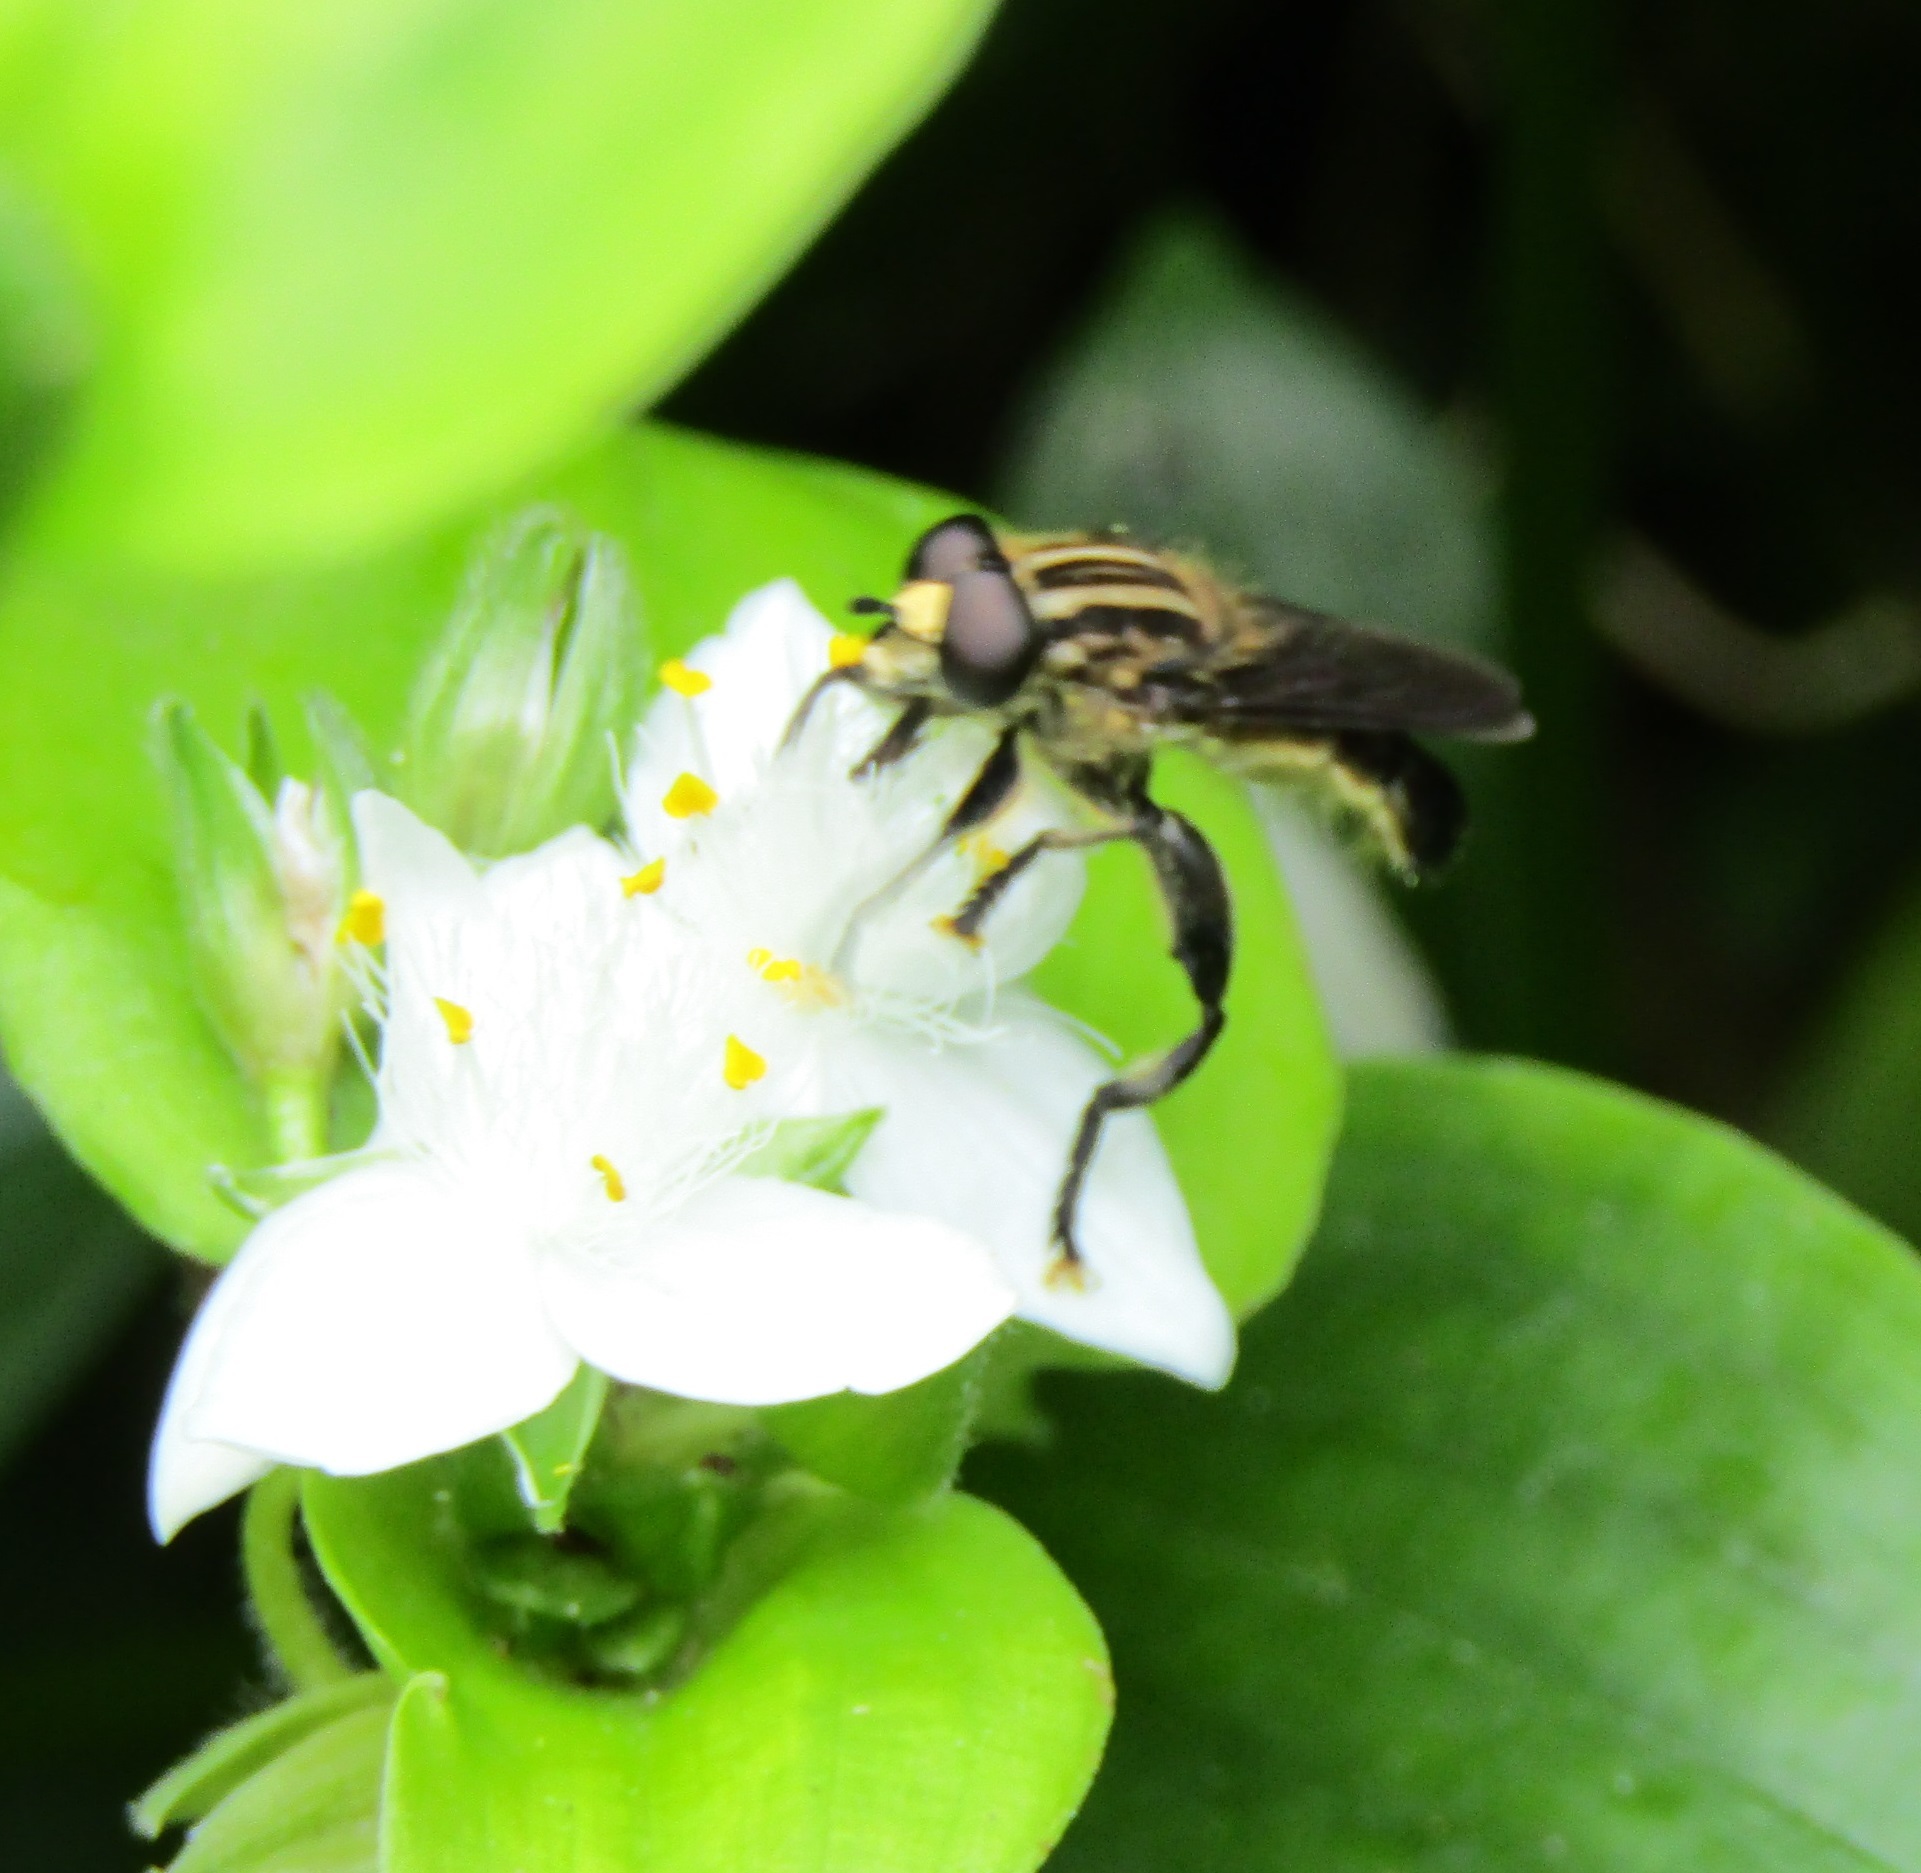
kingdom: Animalia
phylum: Arthropoda
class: Insecta
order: Diptera
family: Syrphidae
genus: Orthoprosopa
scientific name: Orthoprosopa bilineata
